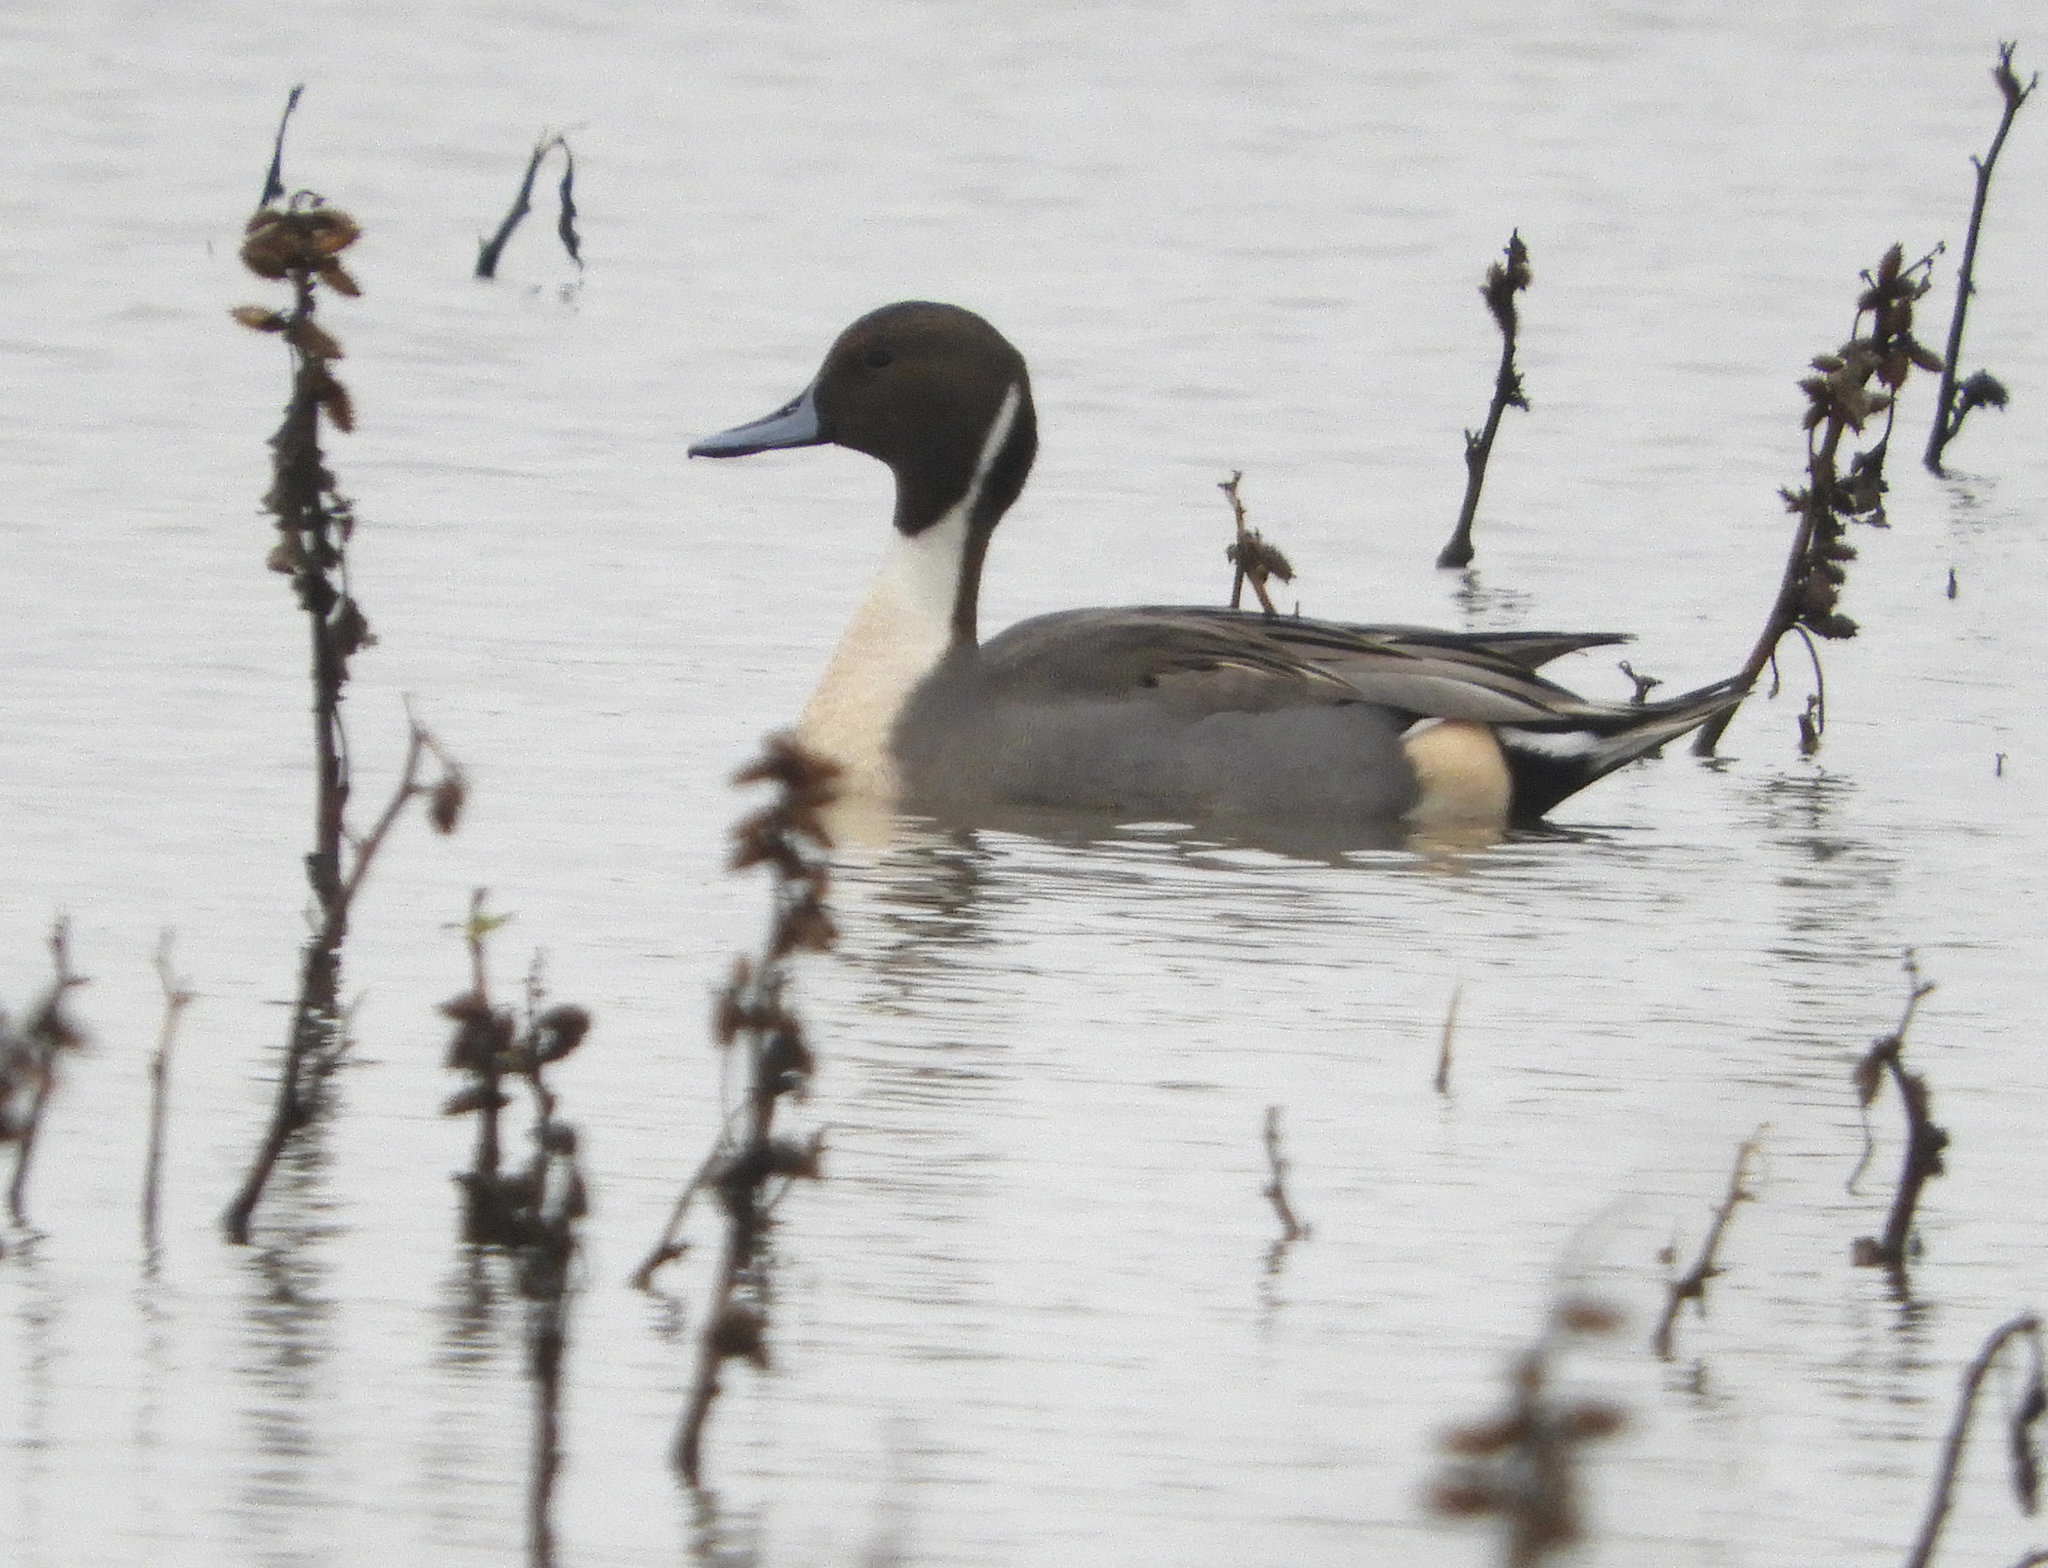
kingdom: Animalia
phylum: Chordata
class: Aves
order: Anseriformes
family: Anatidae
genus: Anas
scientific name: Anas acuta
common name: Northern pintail
